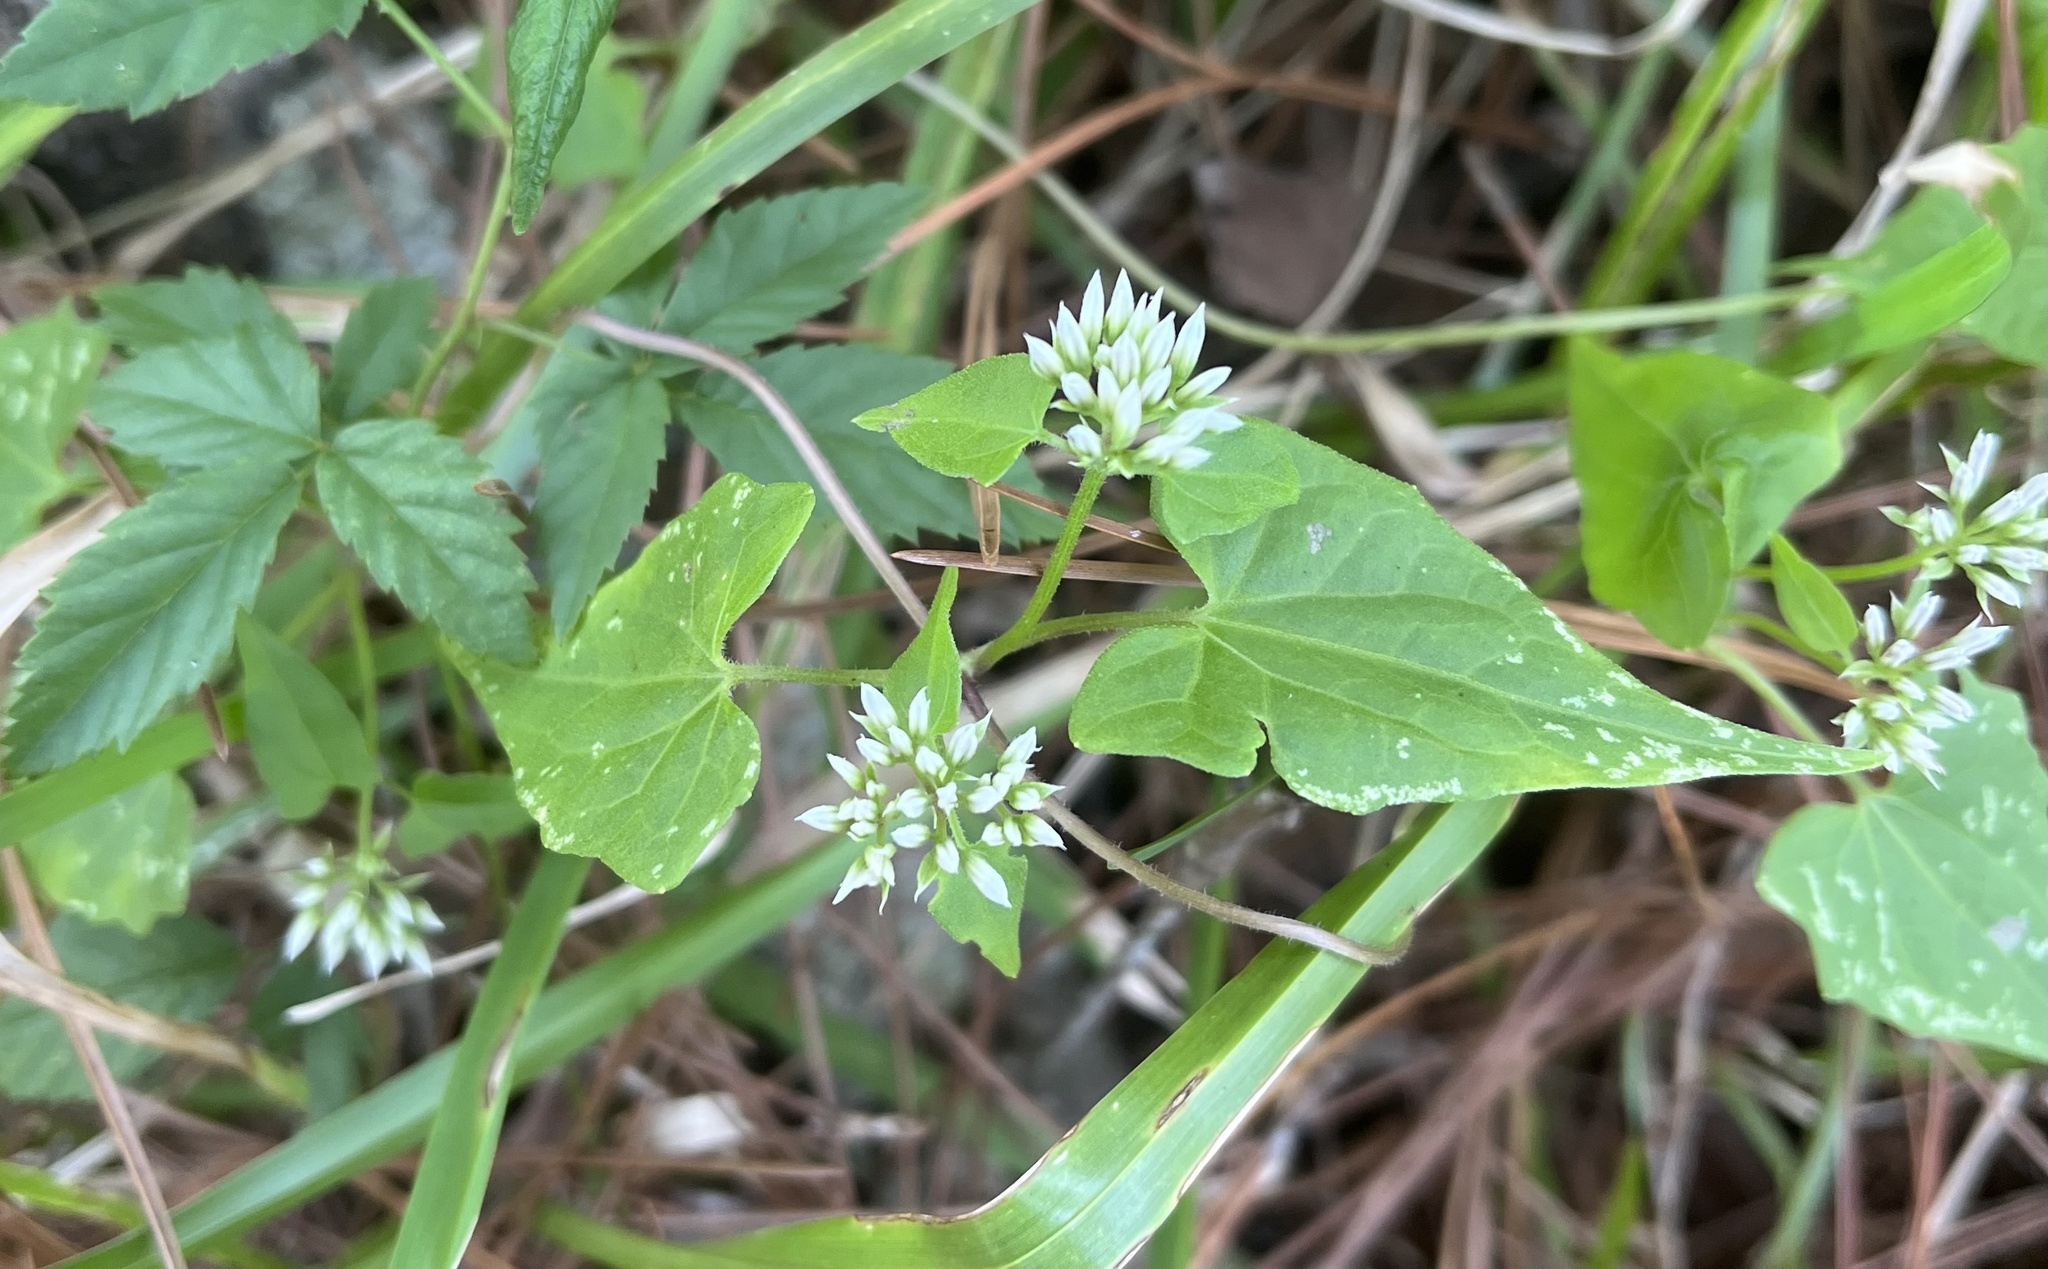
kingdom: Plantae
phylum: Tracheophyta
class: Magnoliopsida
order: Asterales
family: Asteraceae
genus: Mikania
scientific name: Mikania scandens
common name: Climbing hempvine
